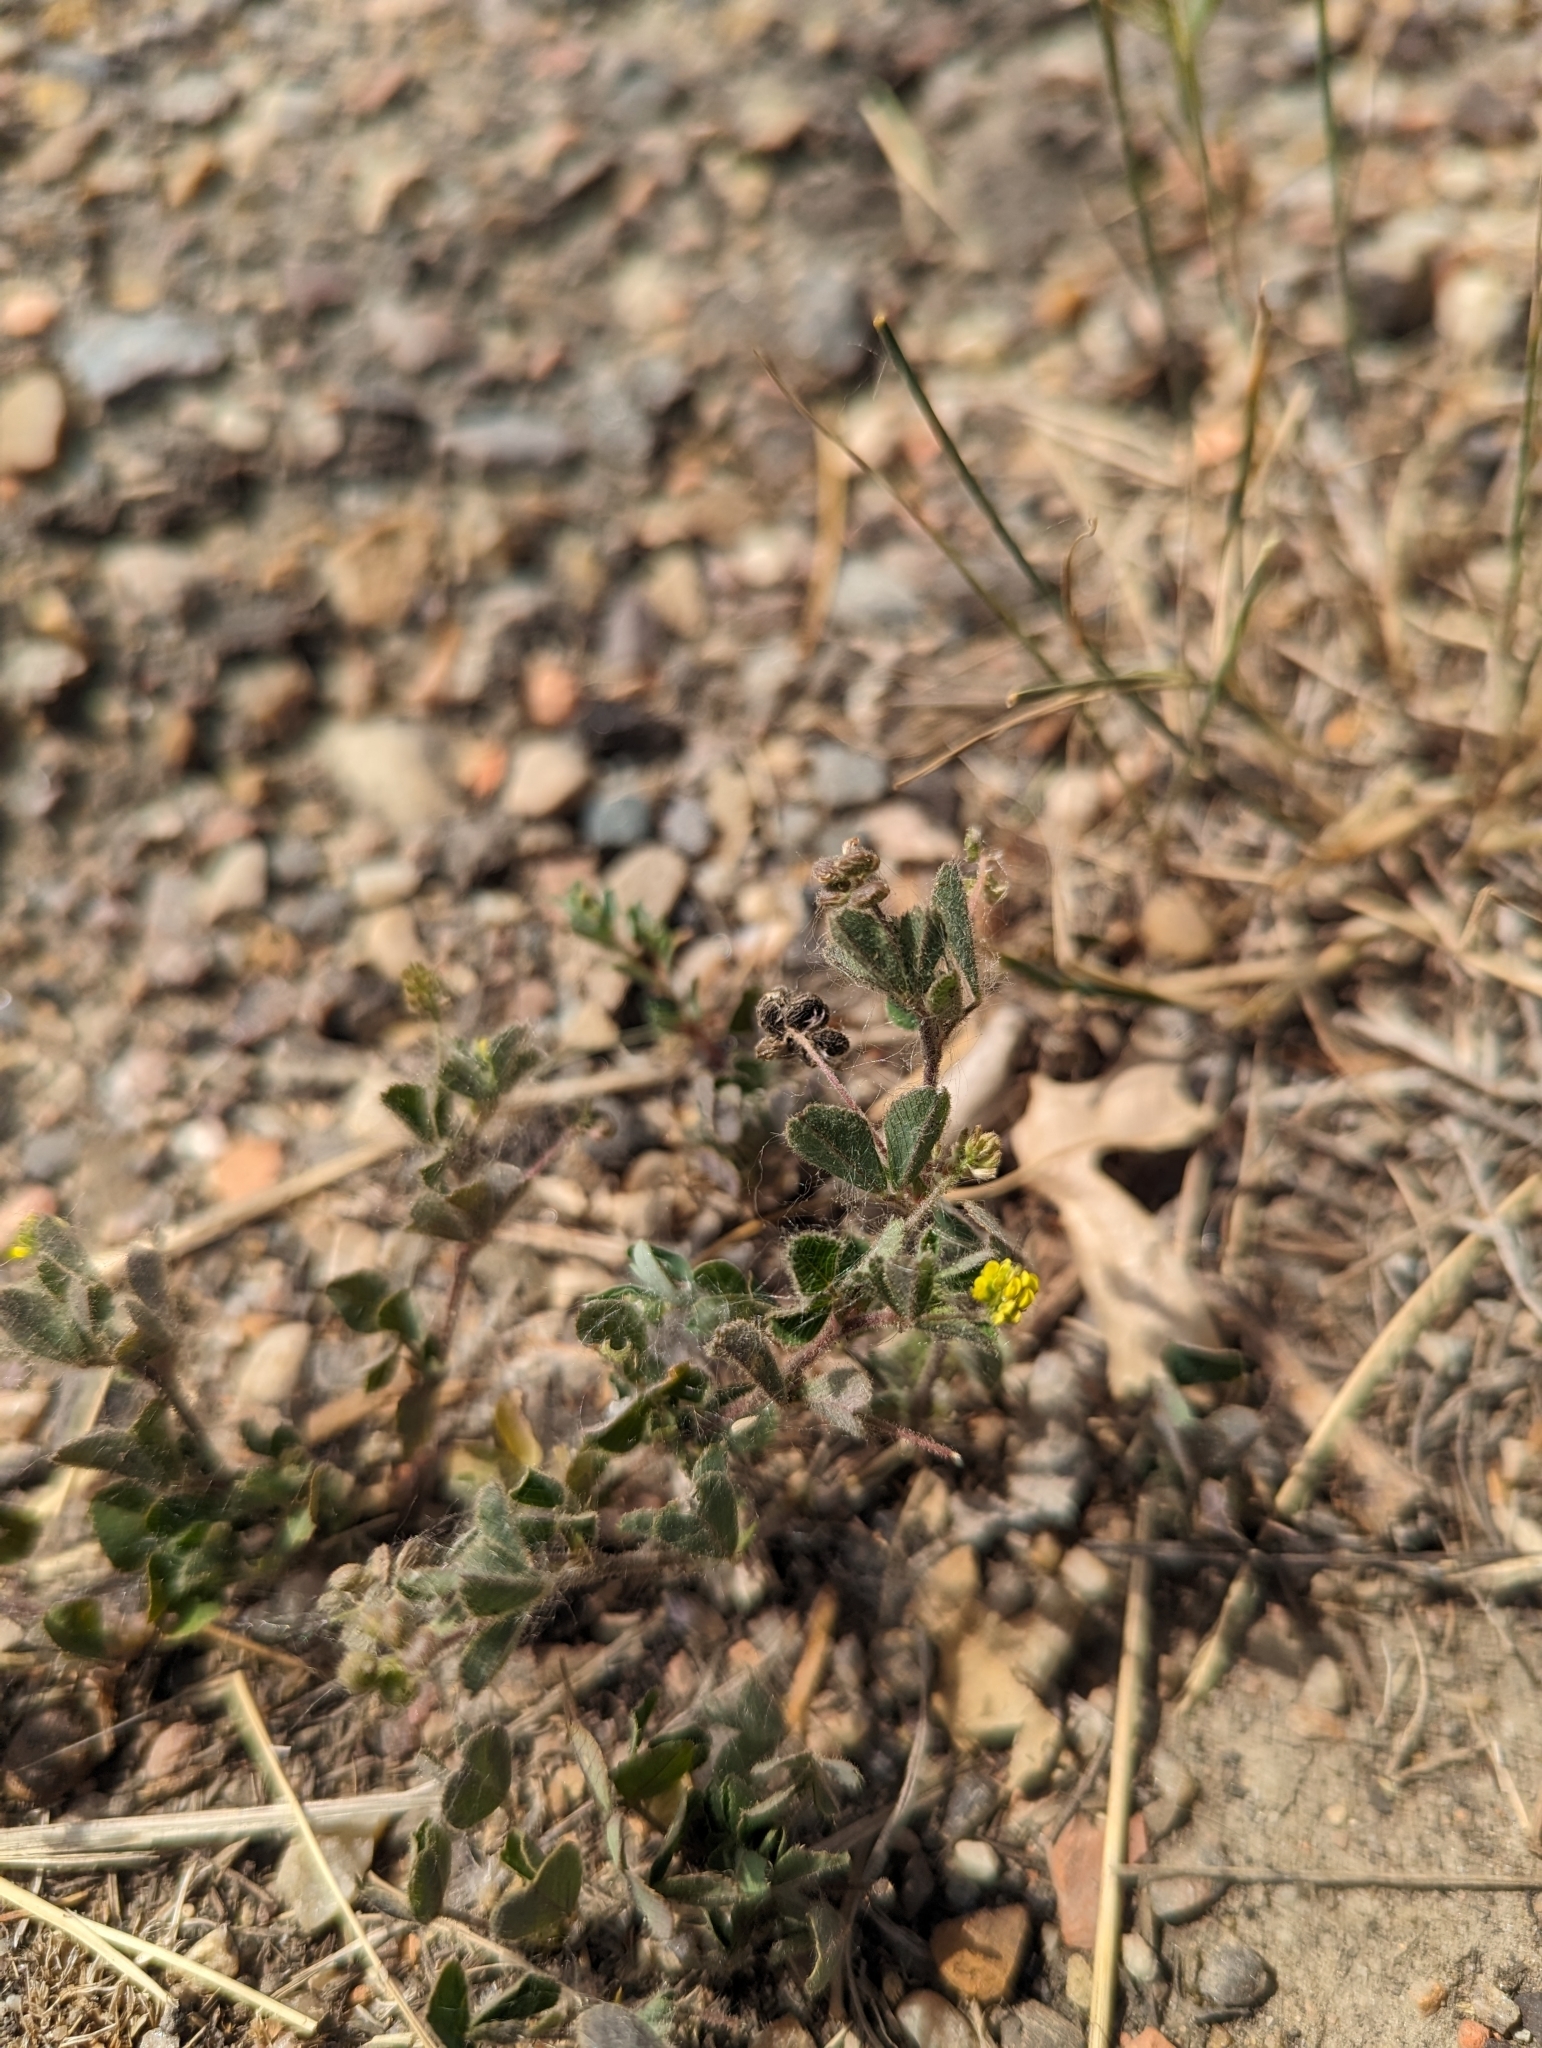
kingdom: Plantae
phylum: Tracheophyta
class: Magnoliopsida
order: Fabales
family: Fabaceae
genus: Medicago
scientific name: Medicago lupulina
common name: Black medick
